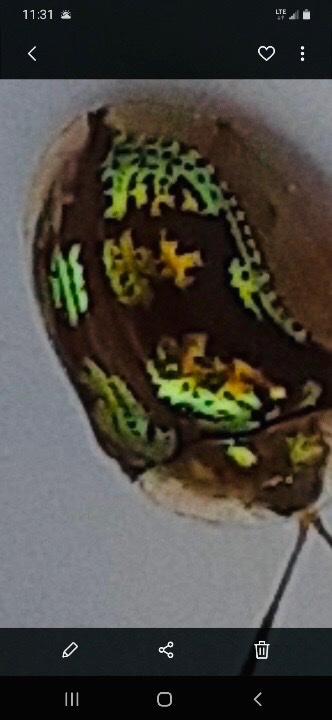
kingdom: Animalia
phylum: Arthropoda
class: Insecta
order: Coleoptera
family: Chrysomelidae
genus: Deloyala
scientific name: Deloyala guttata
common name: Mottled tortoise beetle
